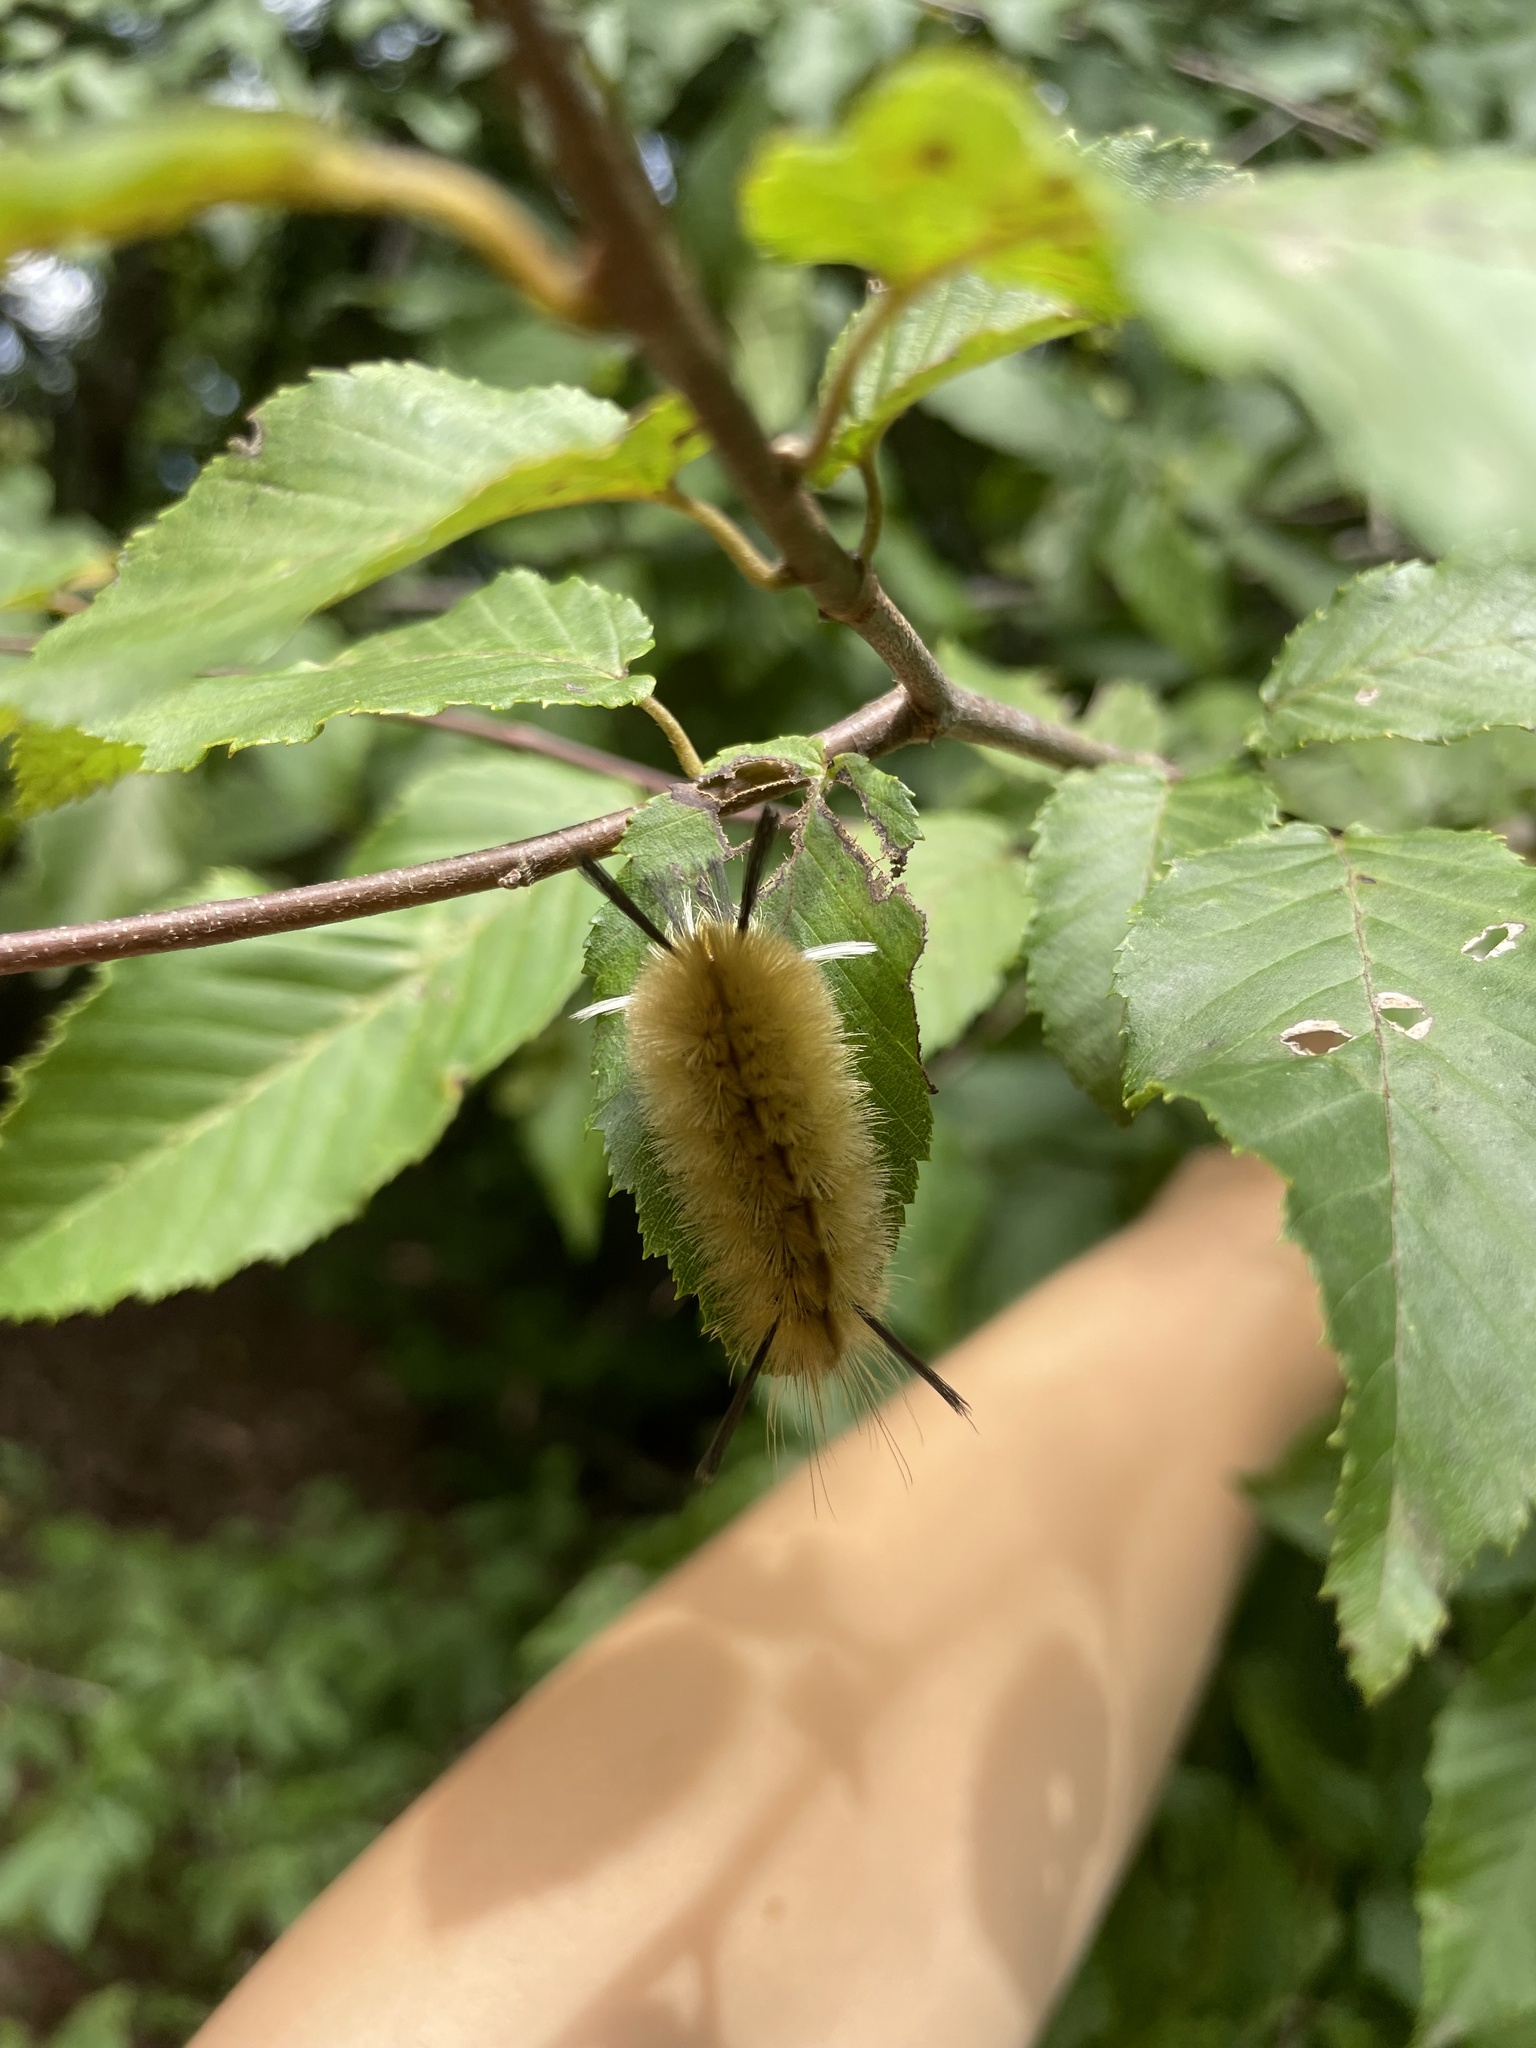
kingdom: Animalia
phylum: Arthropoda
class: Insecta
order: Lepidoptera
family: Erebidae
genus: Halysidota
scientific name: Halysidota tessellaris
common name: Banded tussock moth
